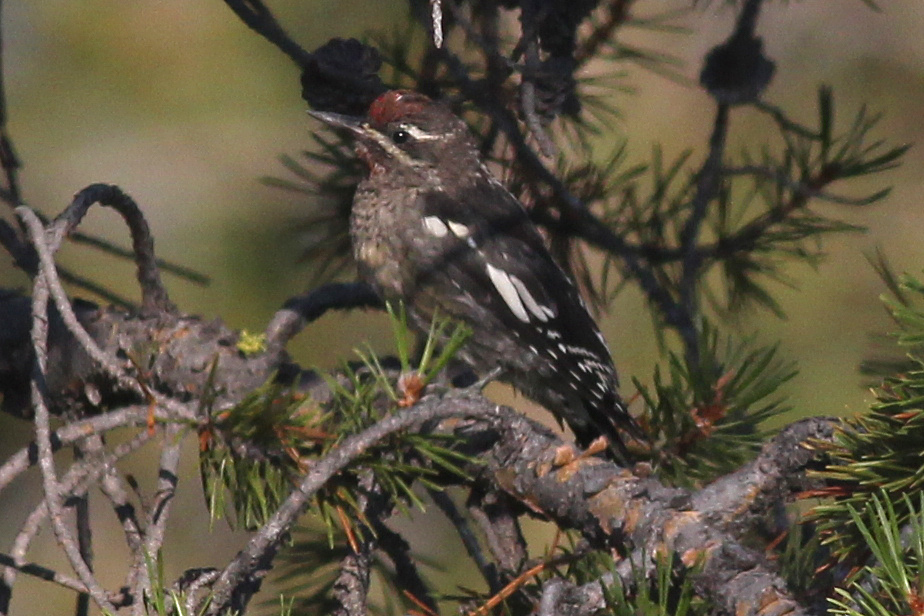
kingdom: Animalia
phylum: Chordata
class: Aves
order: Piciformes
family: Picidae
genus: Sphyrapicus
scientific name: Sphyrapicus nuchalis
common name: Red-naped sapsucker
